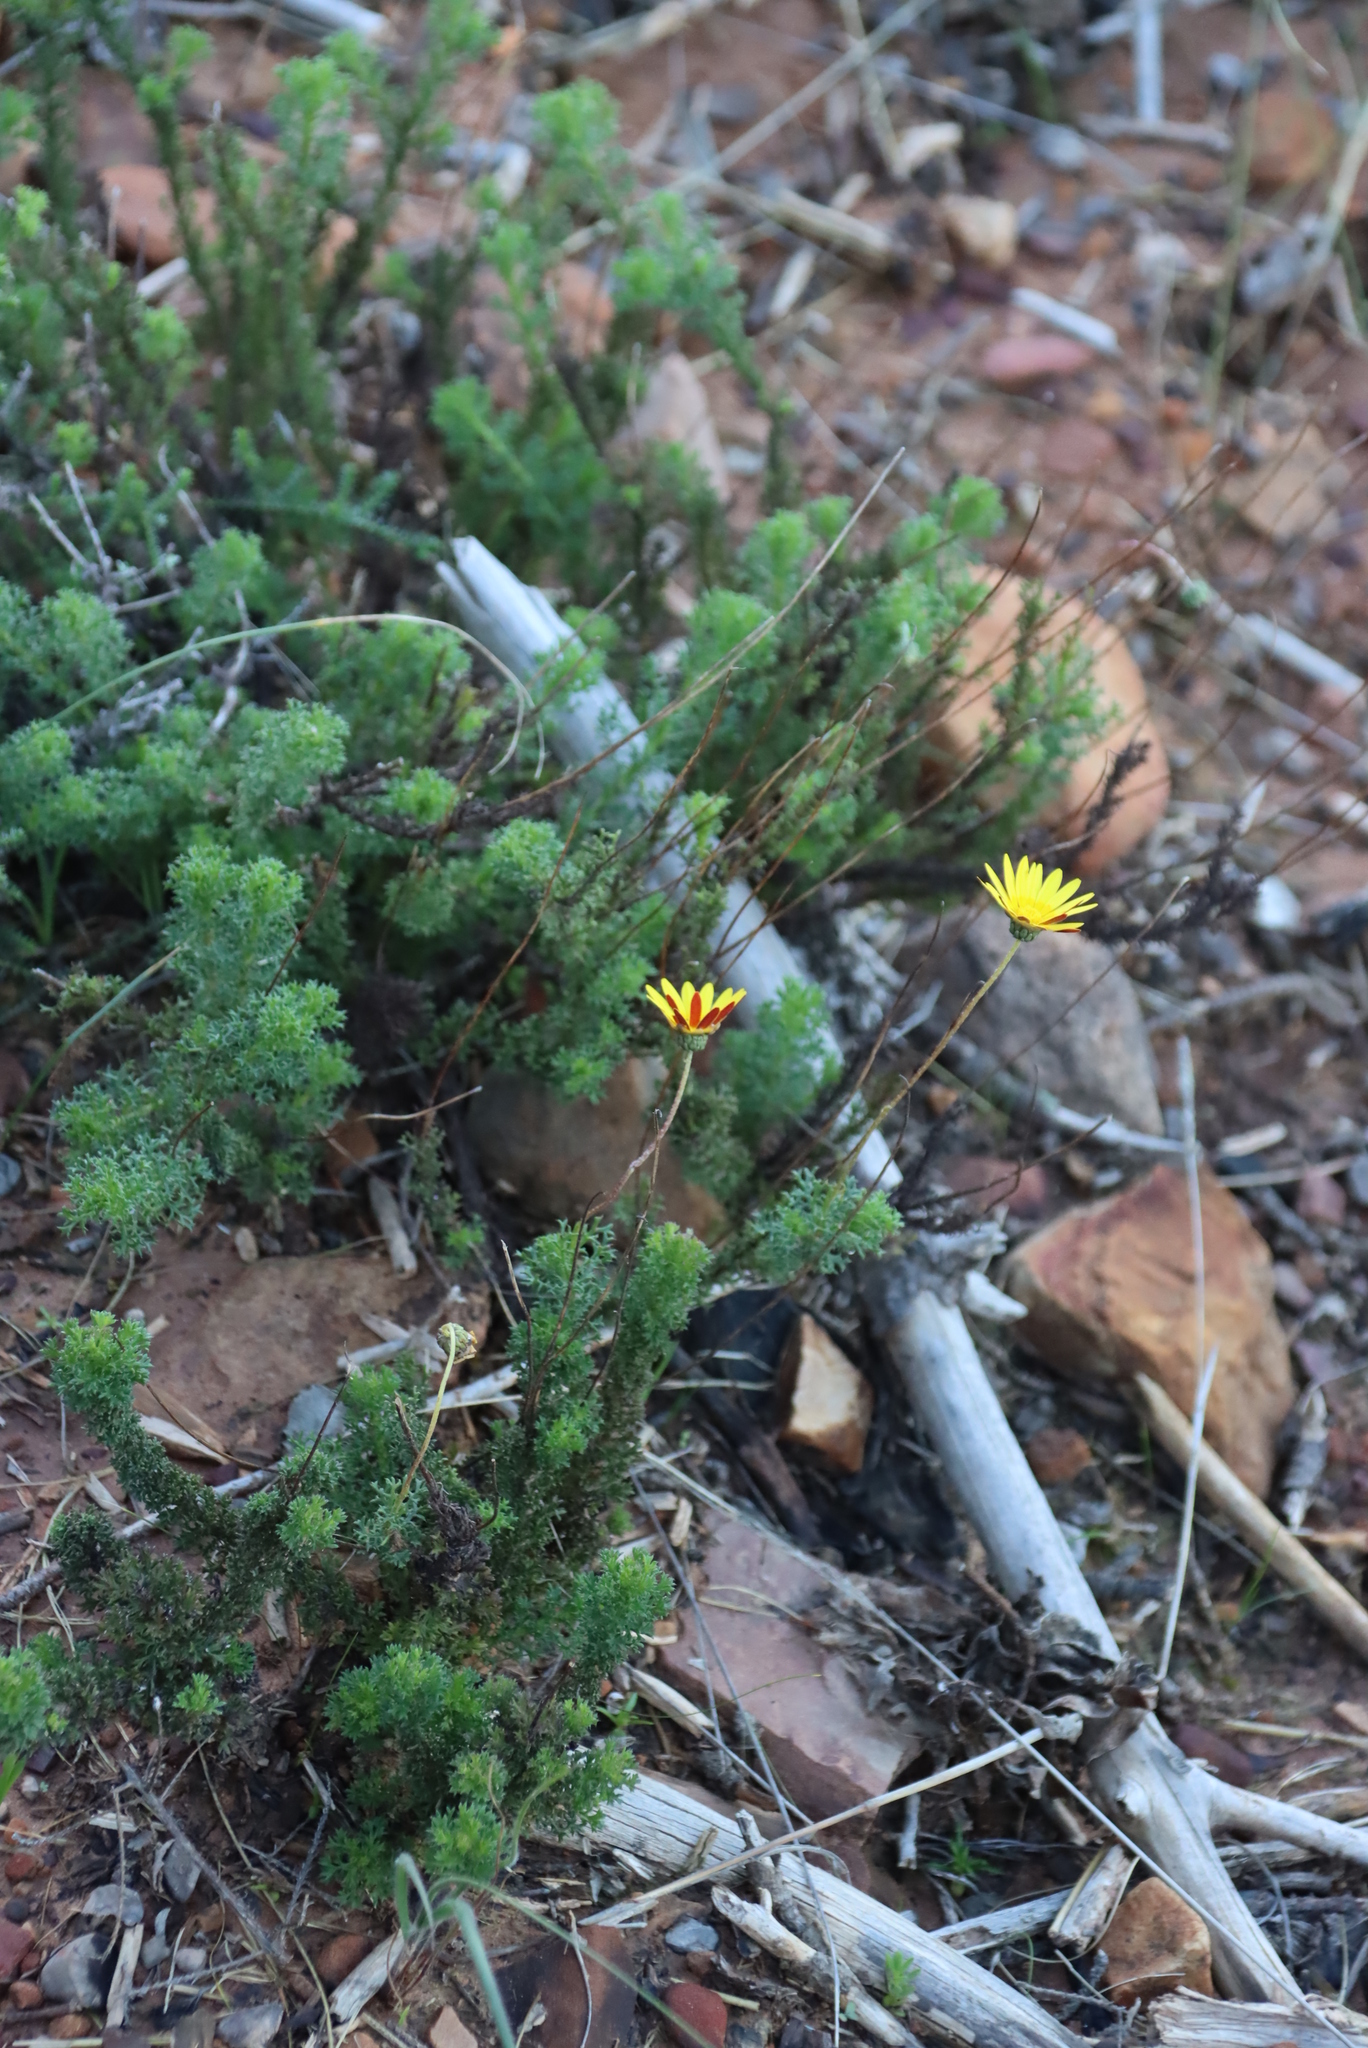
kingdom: Plantae
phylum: Tracheophyta
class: Magnoliopsida
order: Asterales
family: Asteraceae
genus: Ursinia
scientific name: Ursinia dentata
